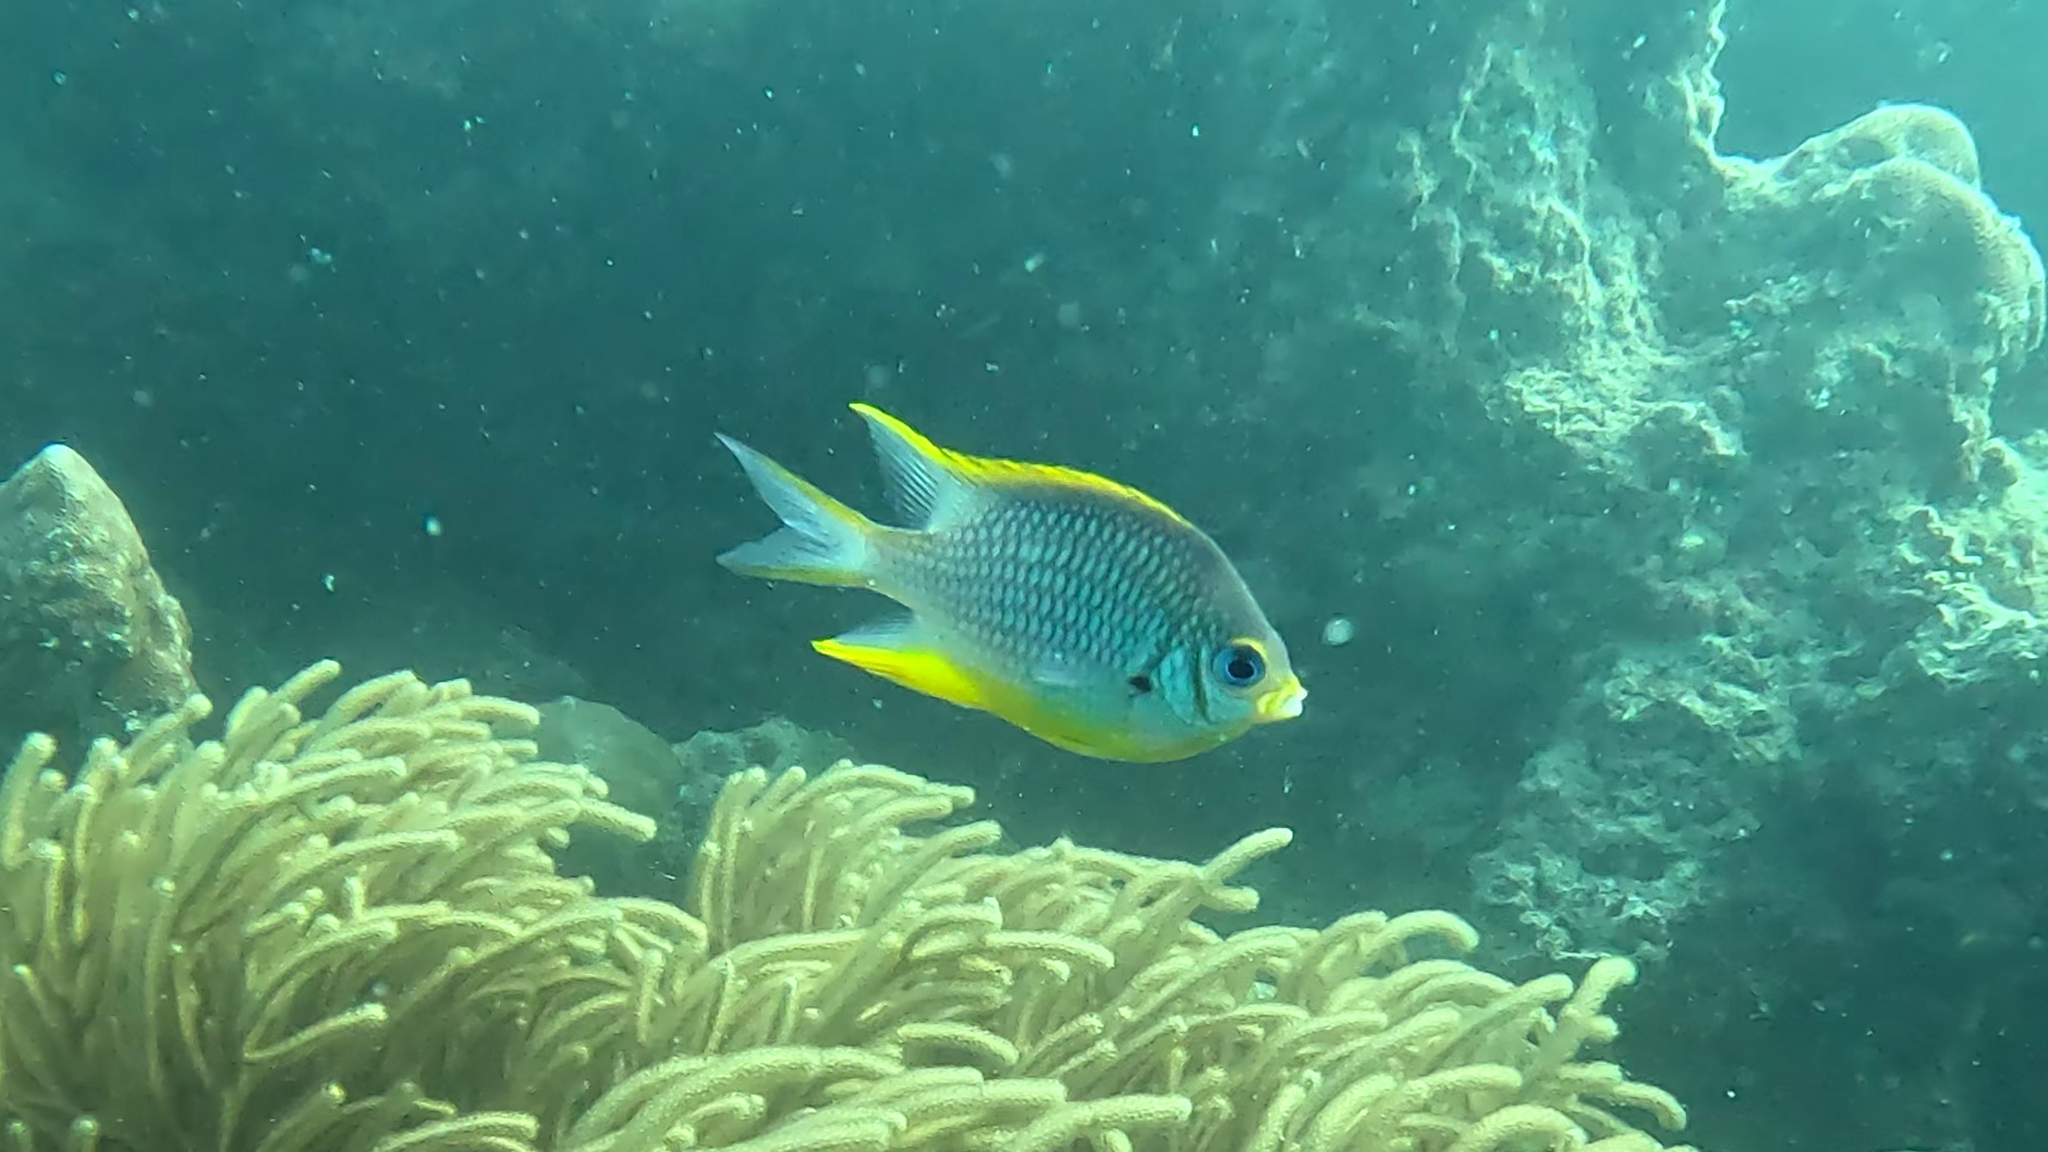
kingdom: Animalia
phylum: Chordata
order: Perciformes
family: Pomacentridae
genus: Amblyglyphidodon
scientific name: Amblyglyphidodon silolona
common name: Silolona damselfish
